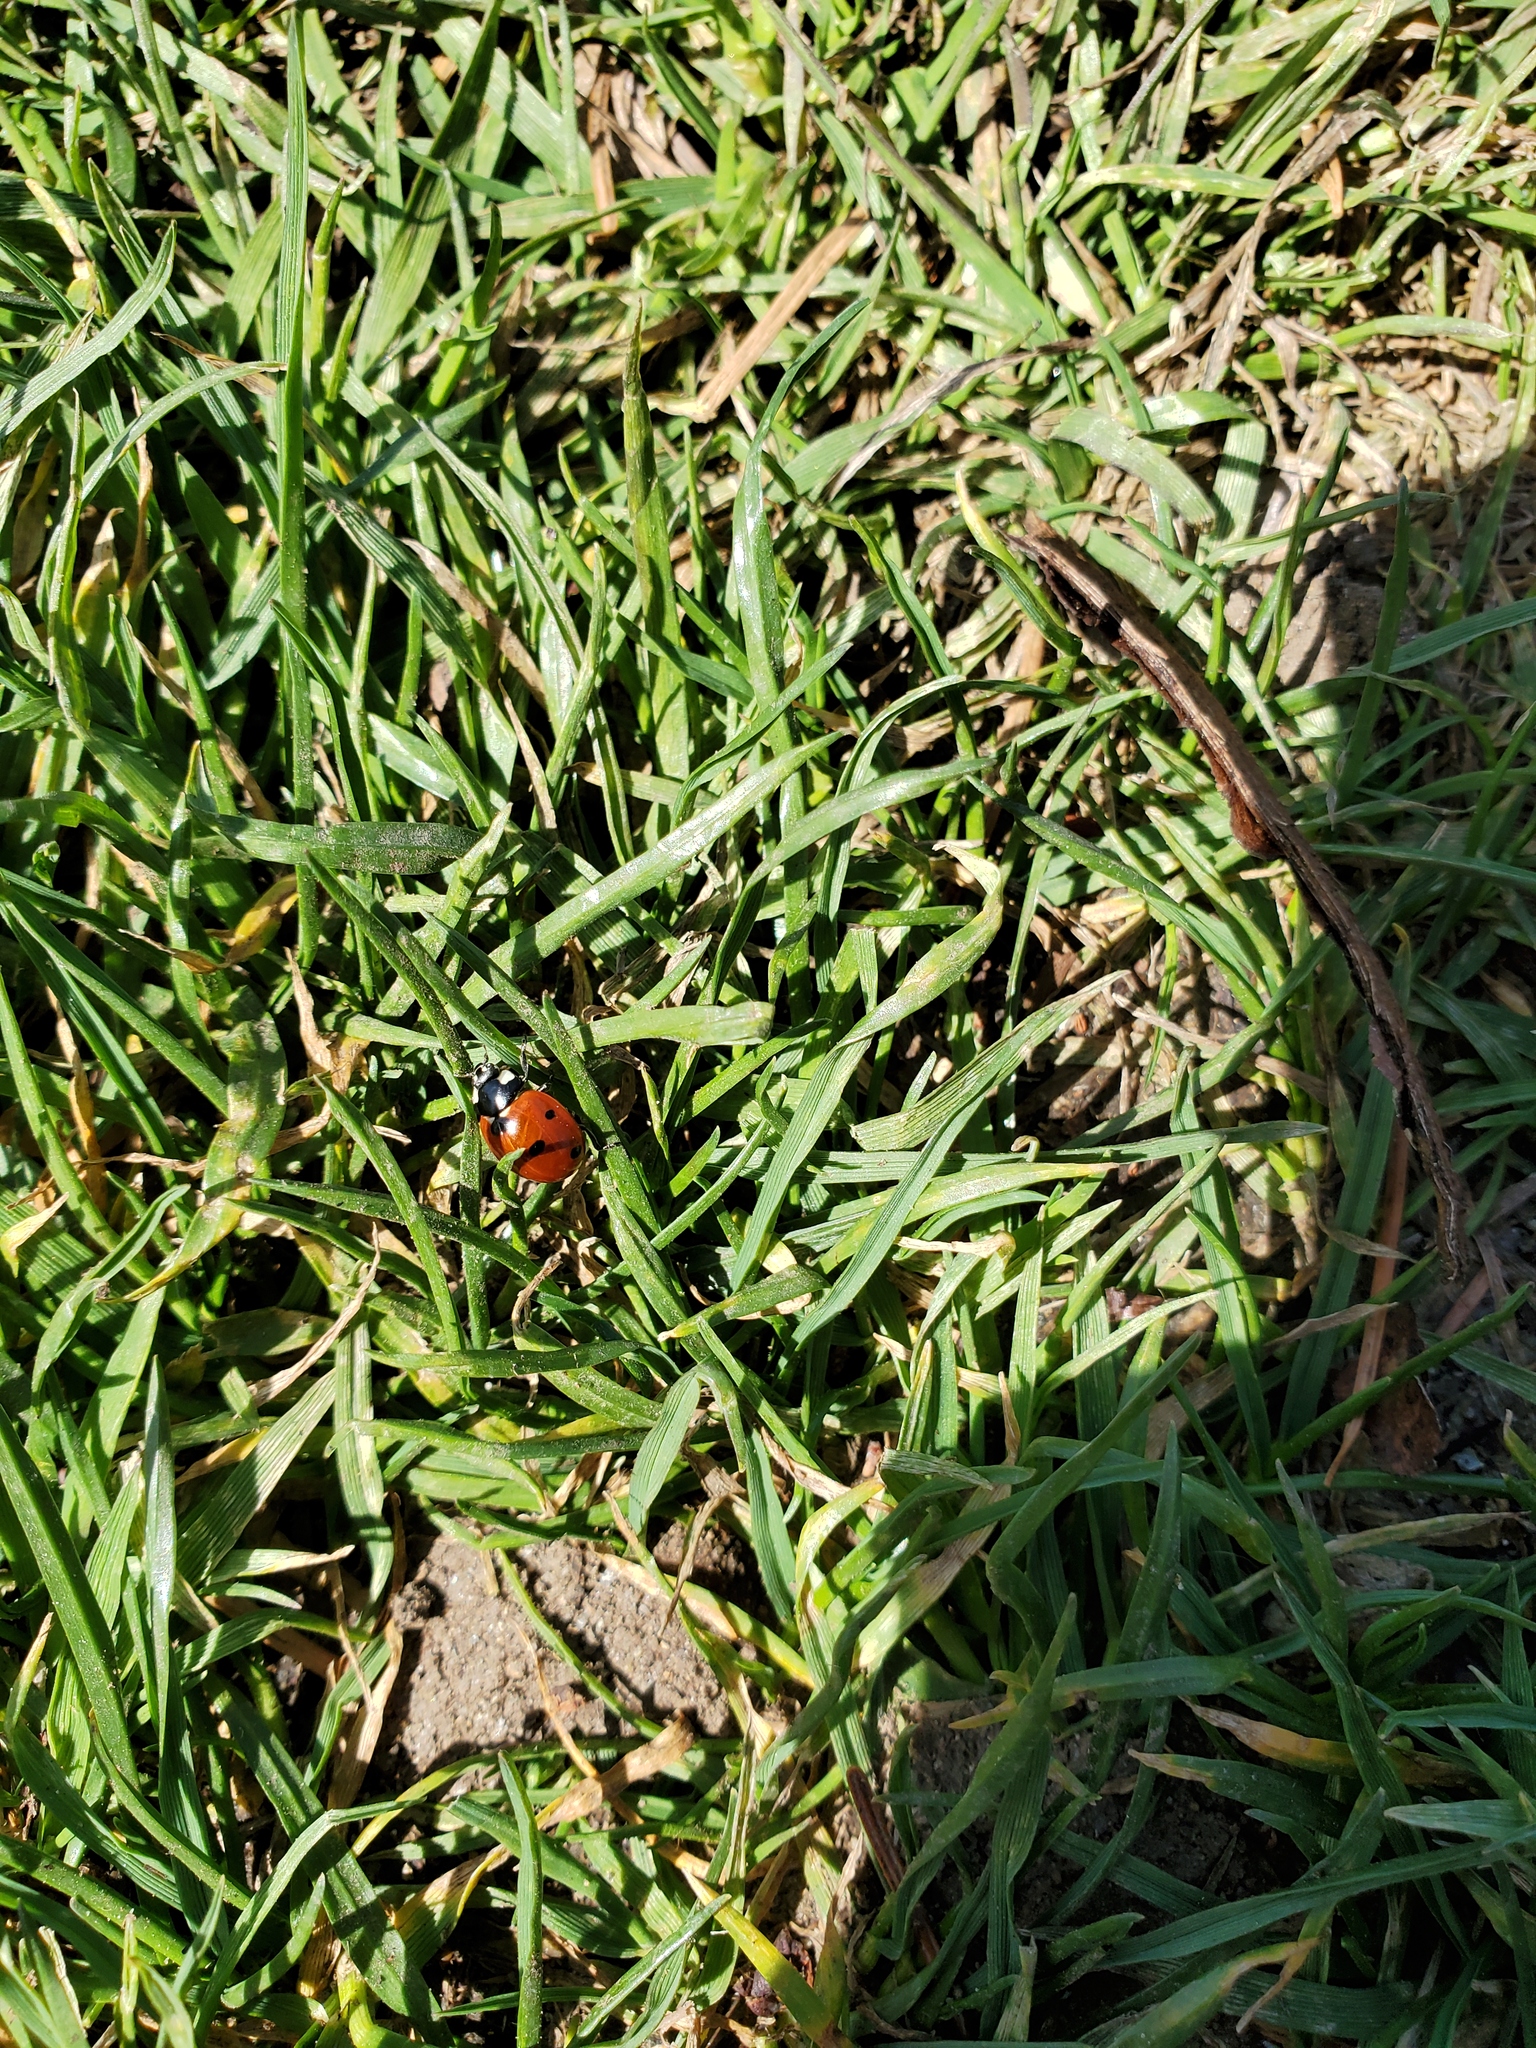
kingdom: Animalia
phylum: Arthropoda
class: Insecta
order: Coleoptera
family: Coccinellidae
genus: Coccinella
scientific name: Coccinella septempunctata
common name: Sevenspotted lady beetle
